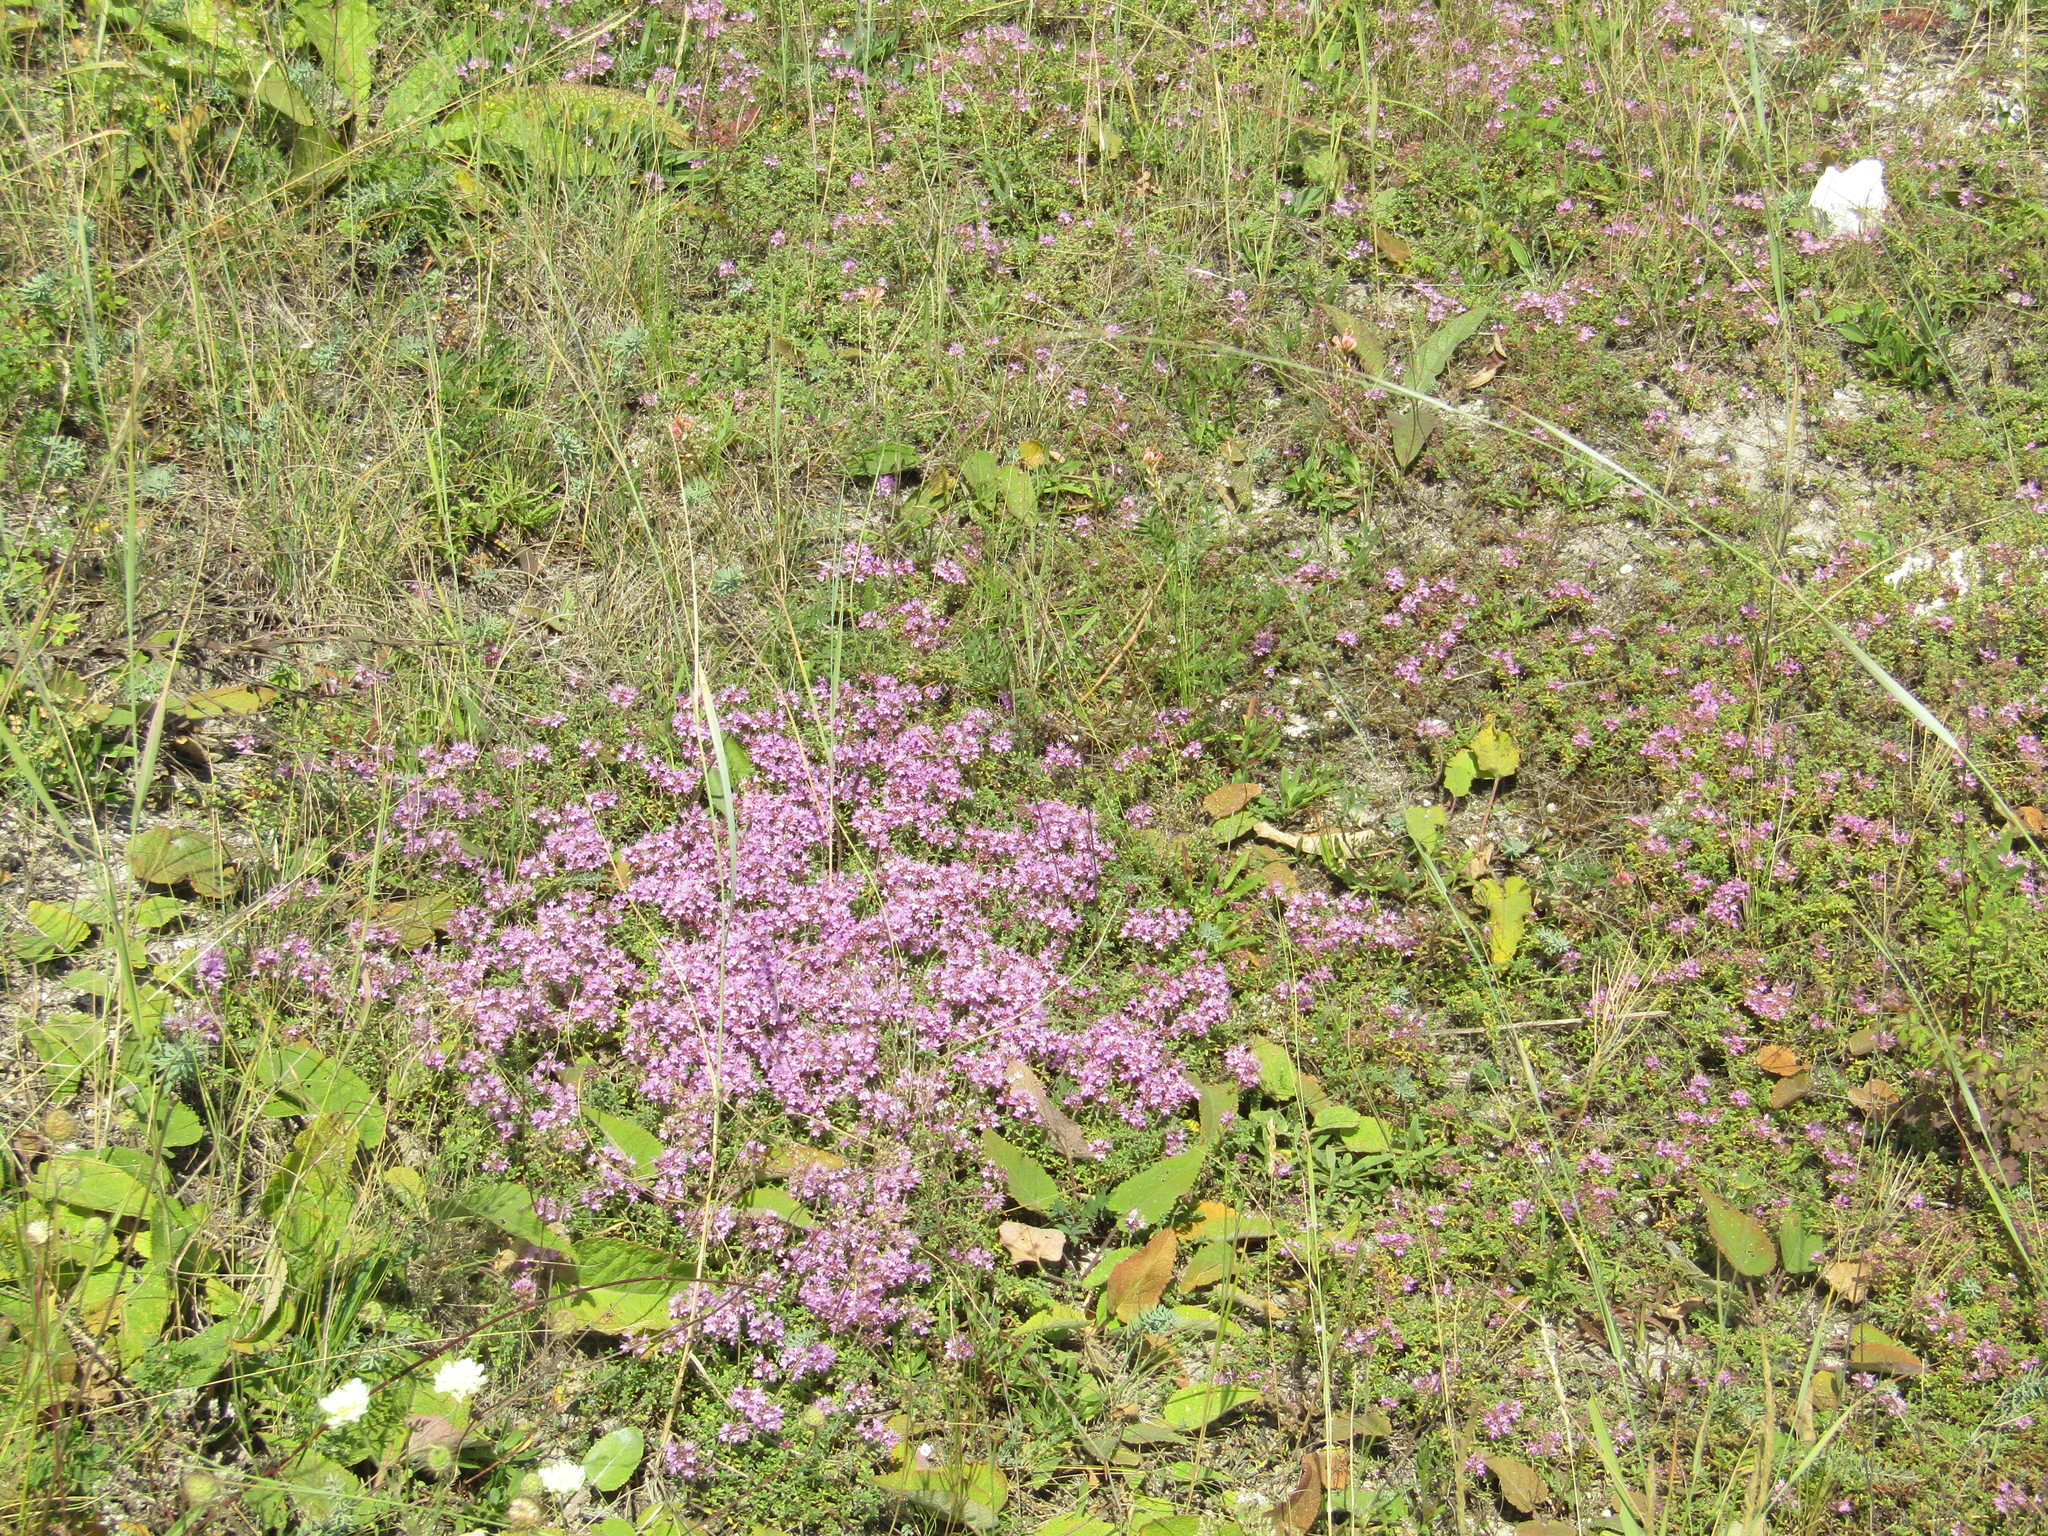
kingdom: Plantae
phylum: Tracheophyta
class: Magnoliopsida
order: Lamiales
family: Lamiaceae
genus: Thymus
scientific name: Thymus calcareus
